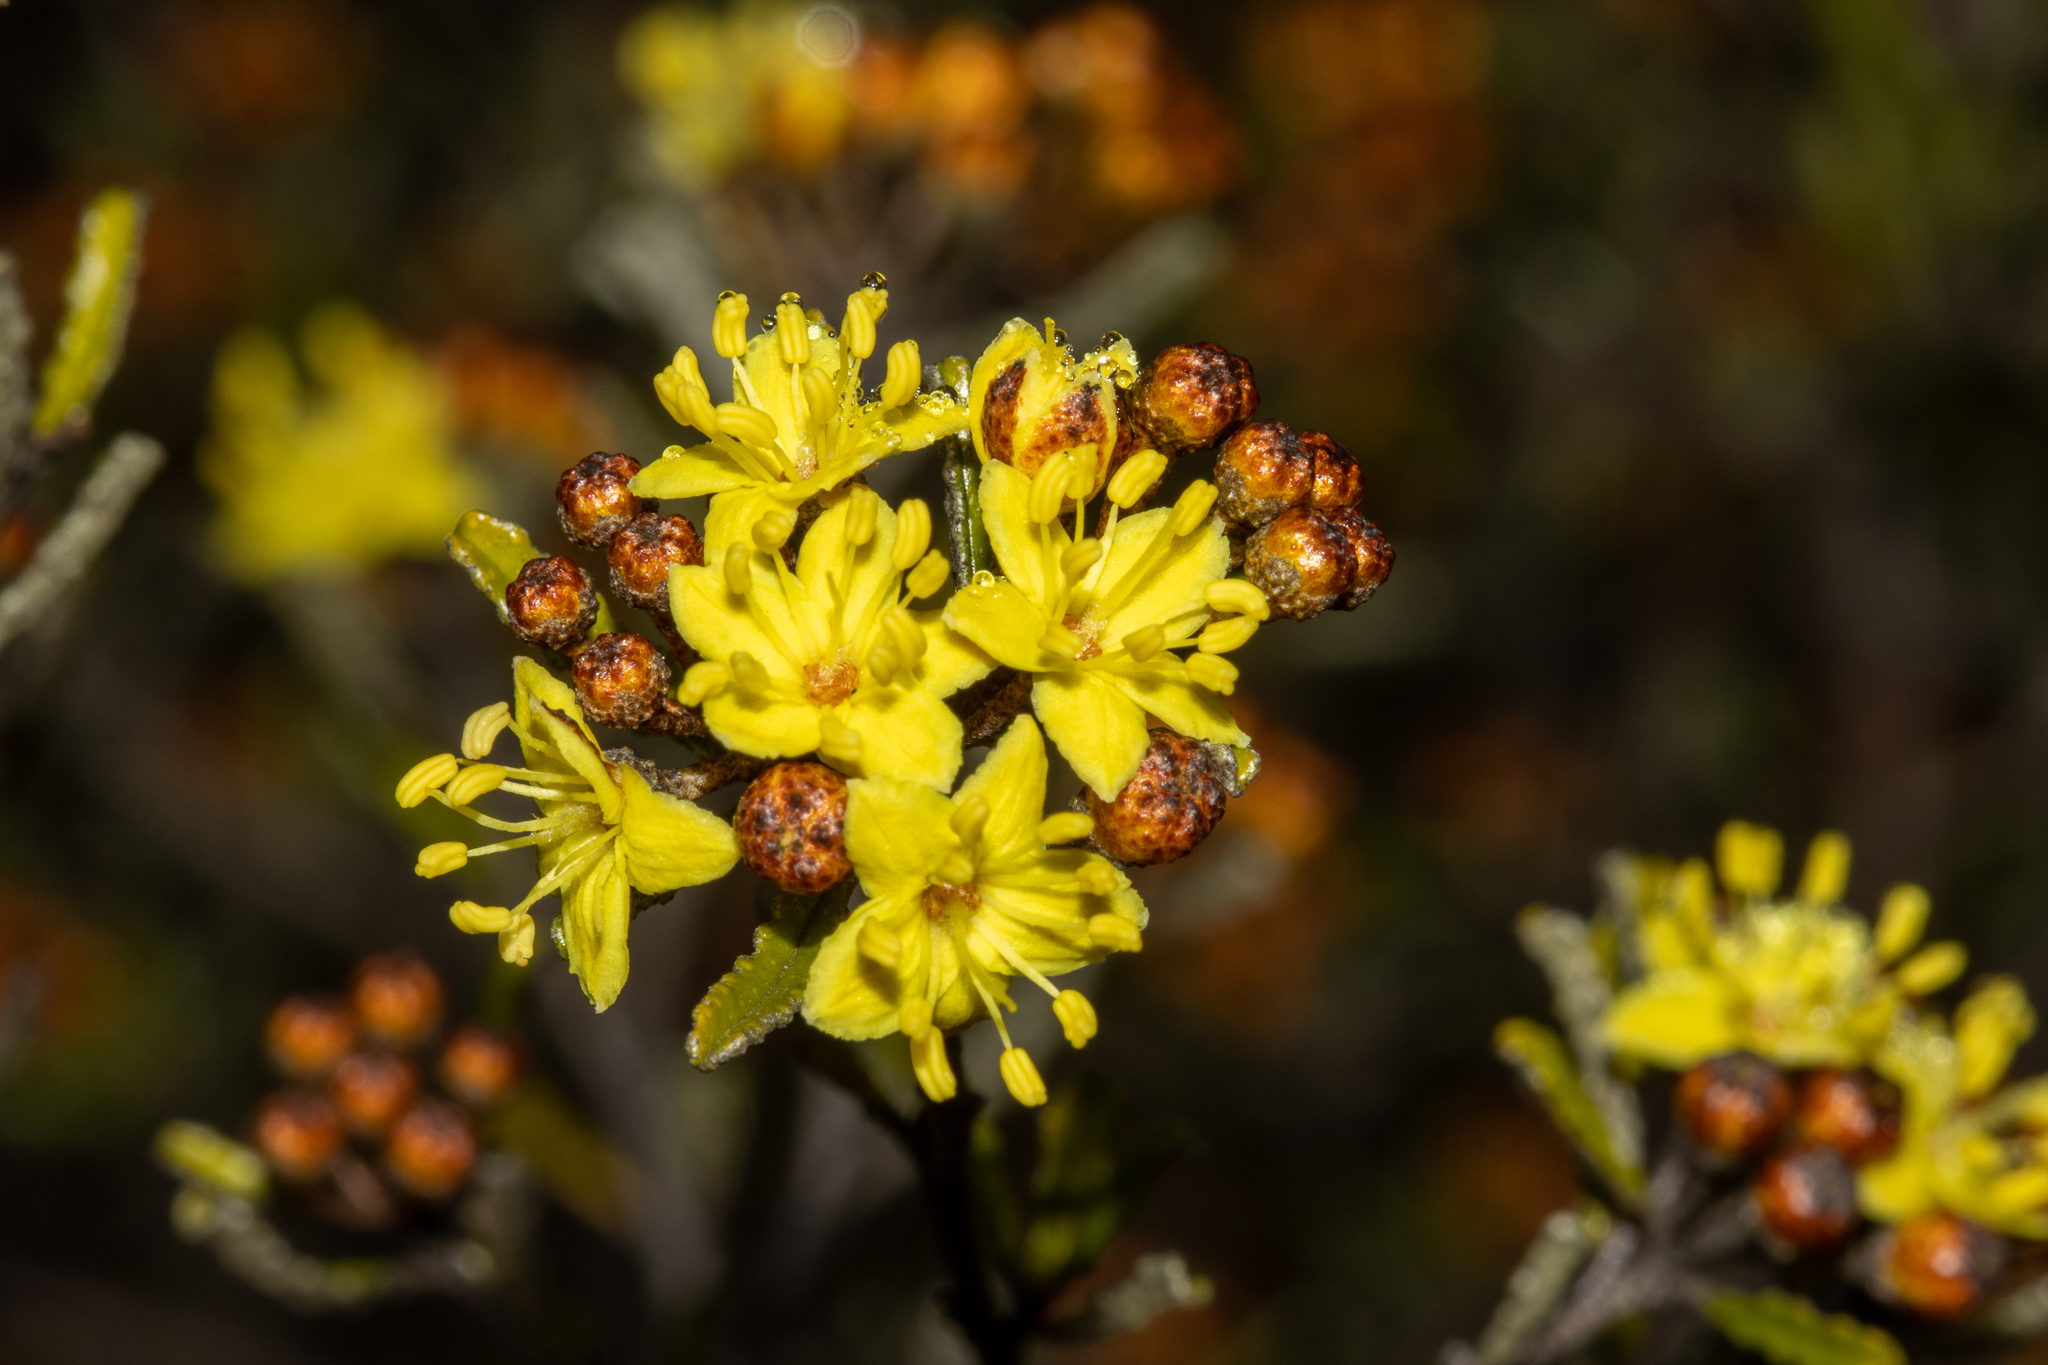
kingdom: Plantae
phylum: Tracheophyta
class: Magnoliopsida
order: Sapindales
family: Rutaceae
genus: Phebalium
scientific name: Phebalium bullatum
